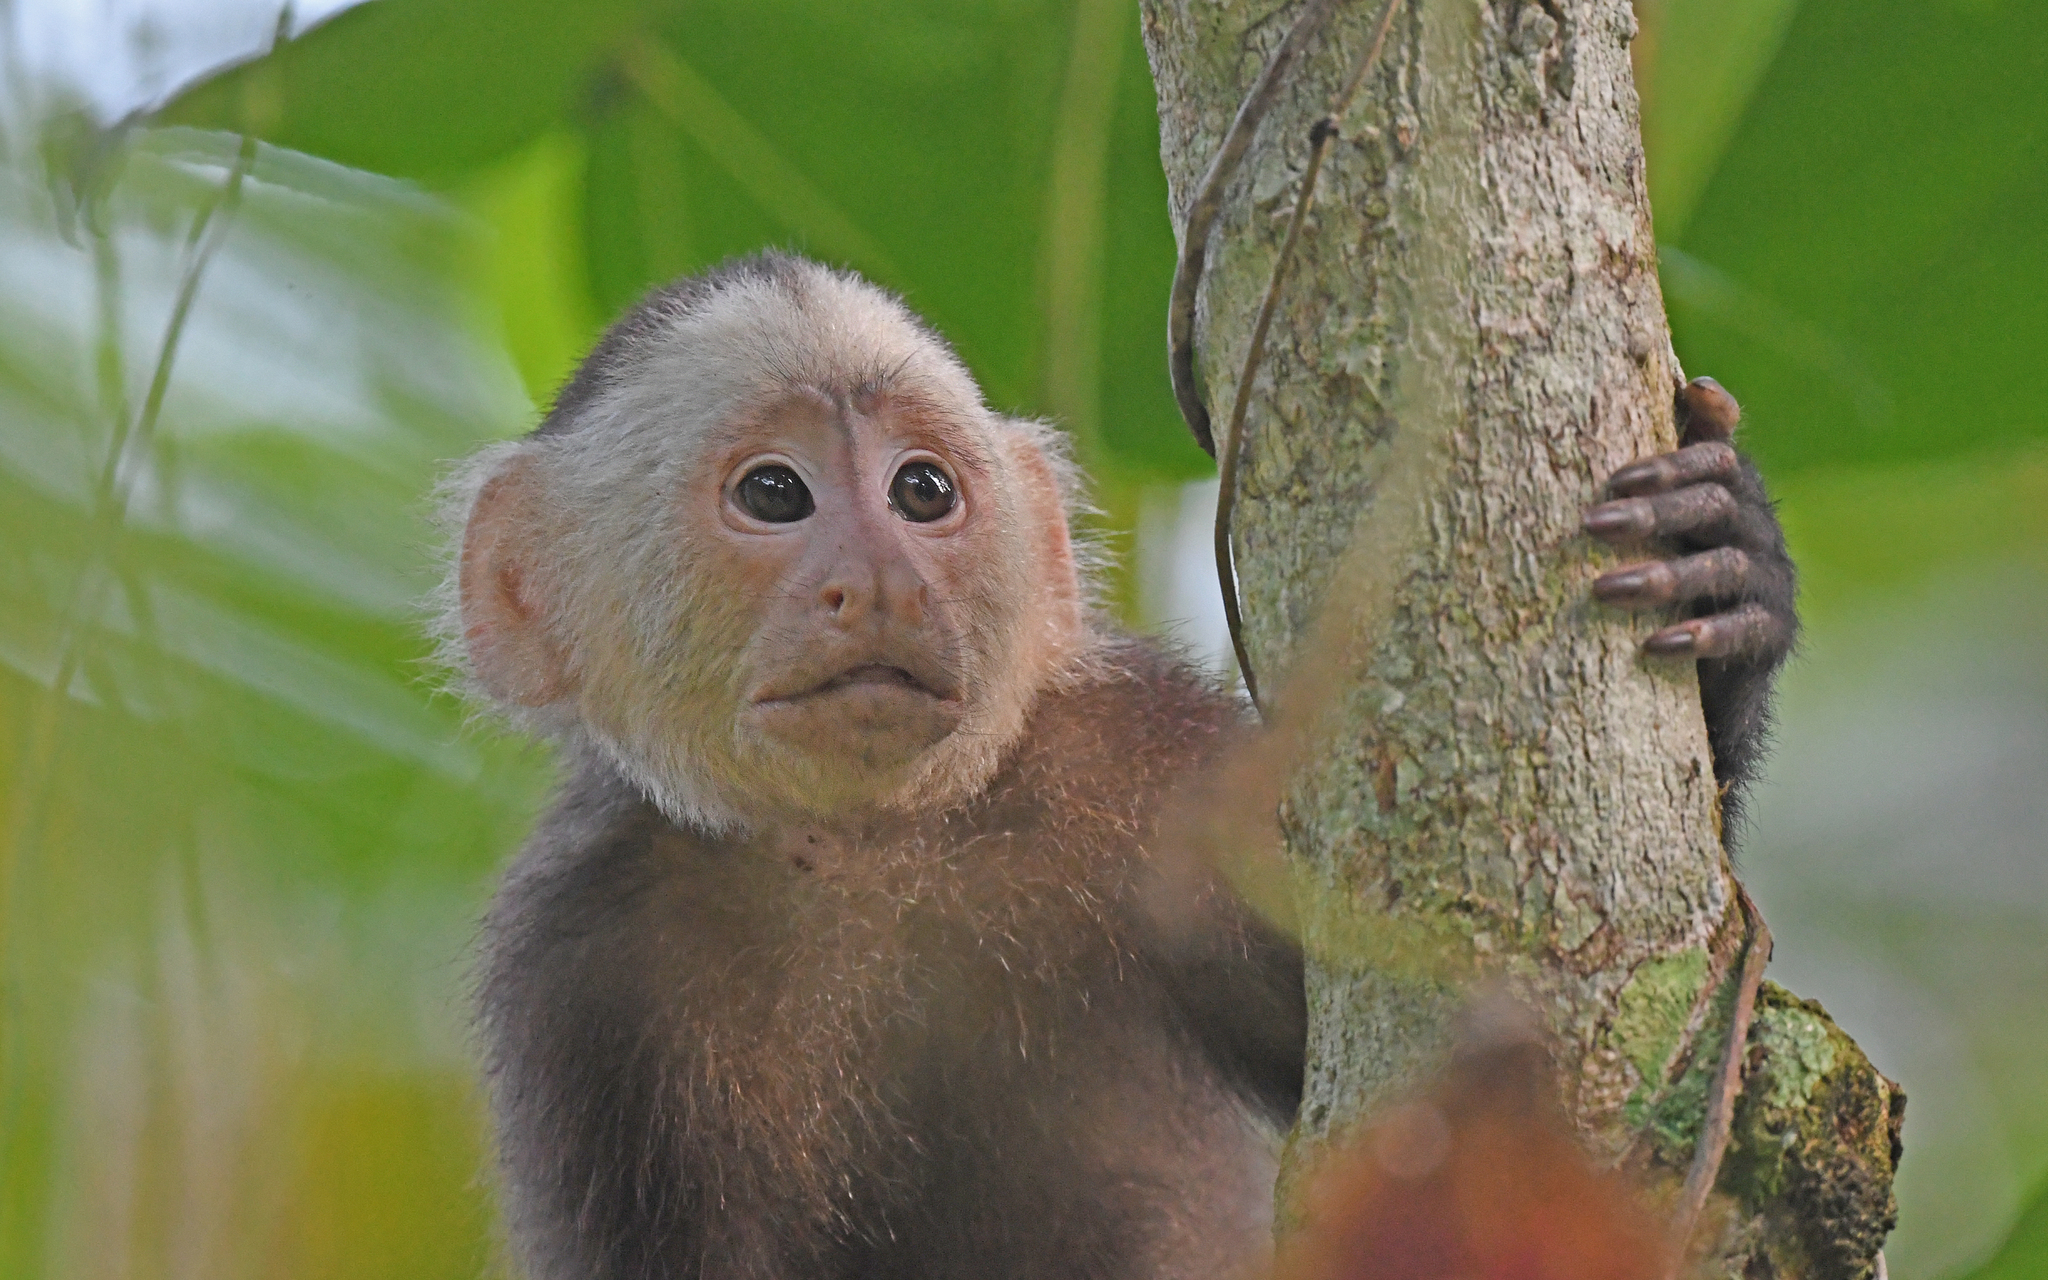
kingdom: Animalia
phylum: Chordata
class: Mammalia
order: Primates
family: Cebidae
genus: Cebus
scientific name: Cebus versicolor
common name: Varied capuchin
